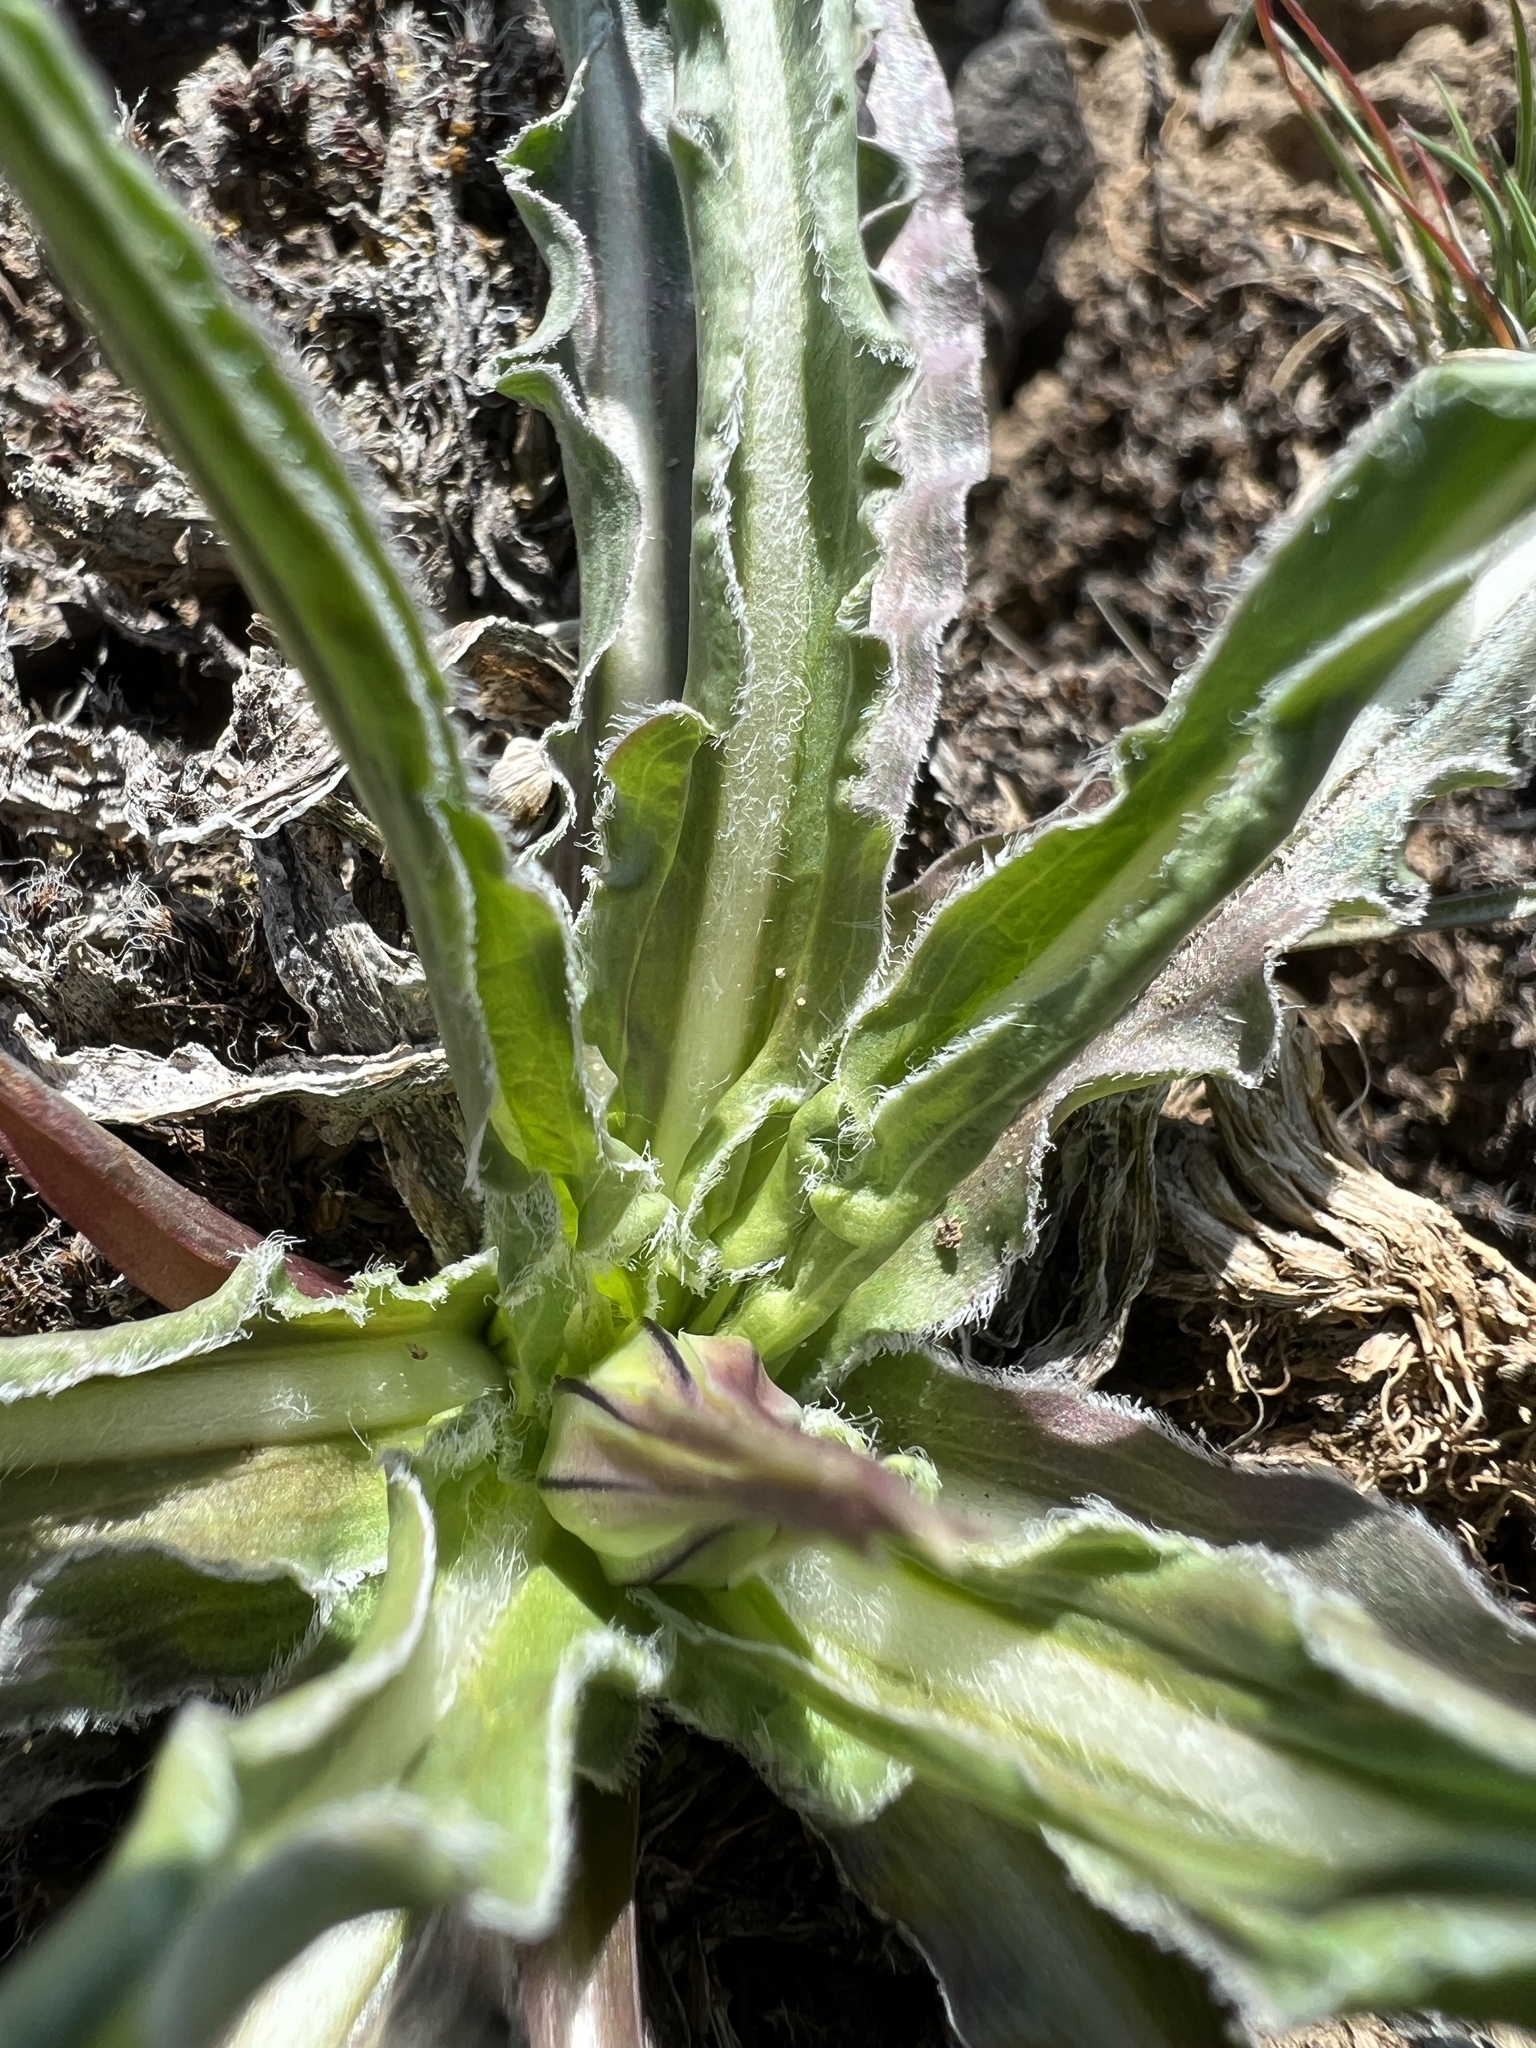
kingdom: Plantae
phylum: Tracheophyta
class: Magnoliopsida
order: Asterales
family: Asteraceae
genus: Microseris
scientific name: Microseris troximoides
